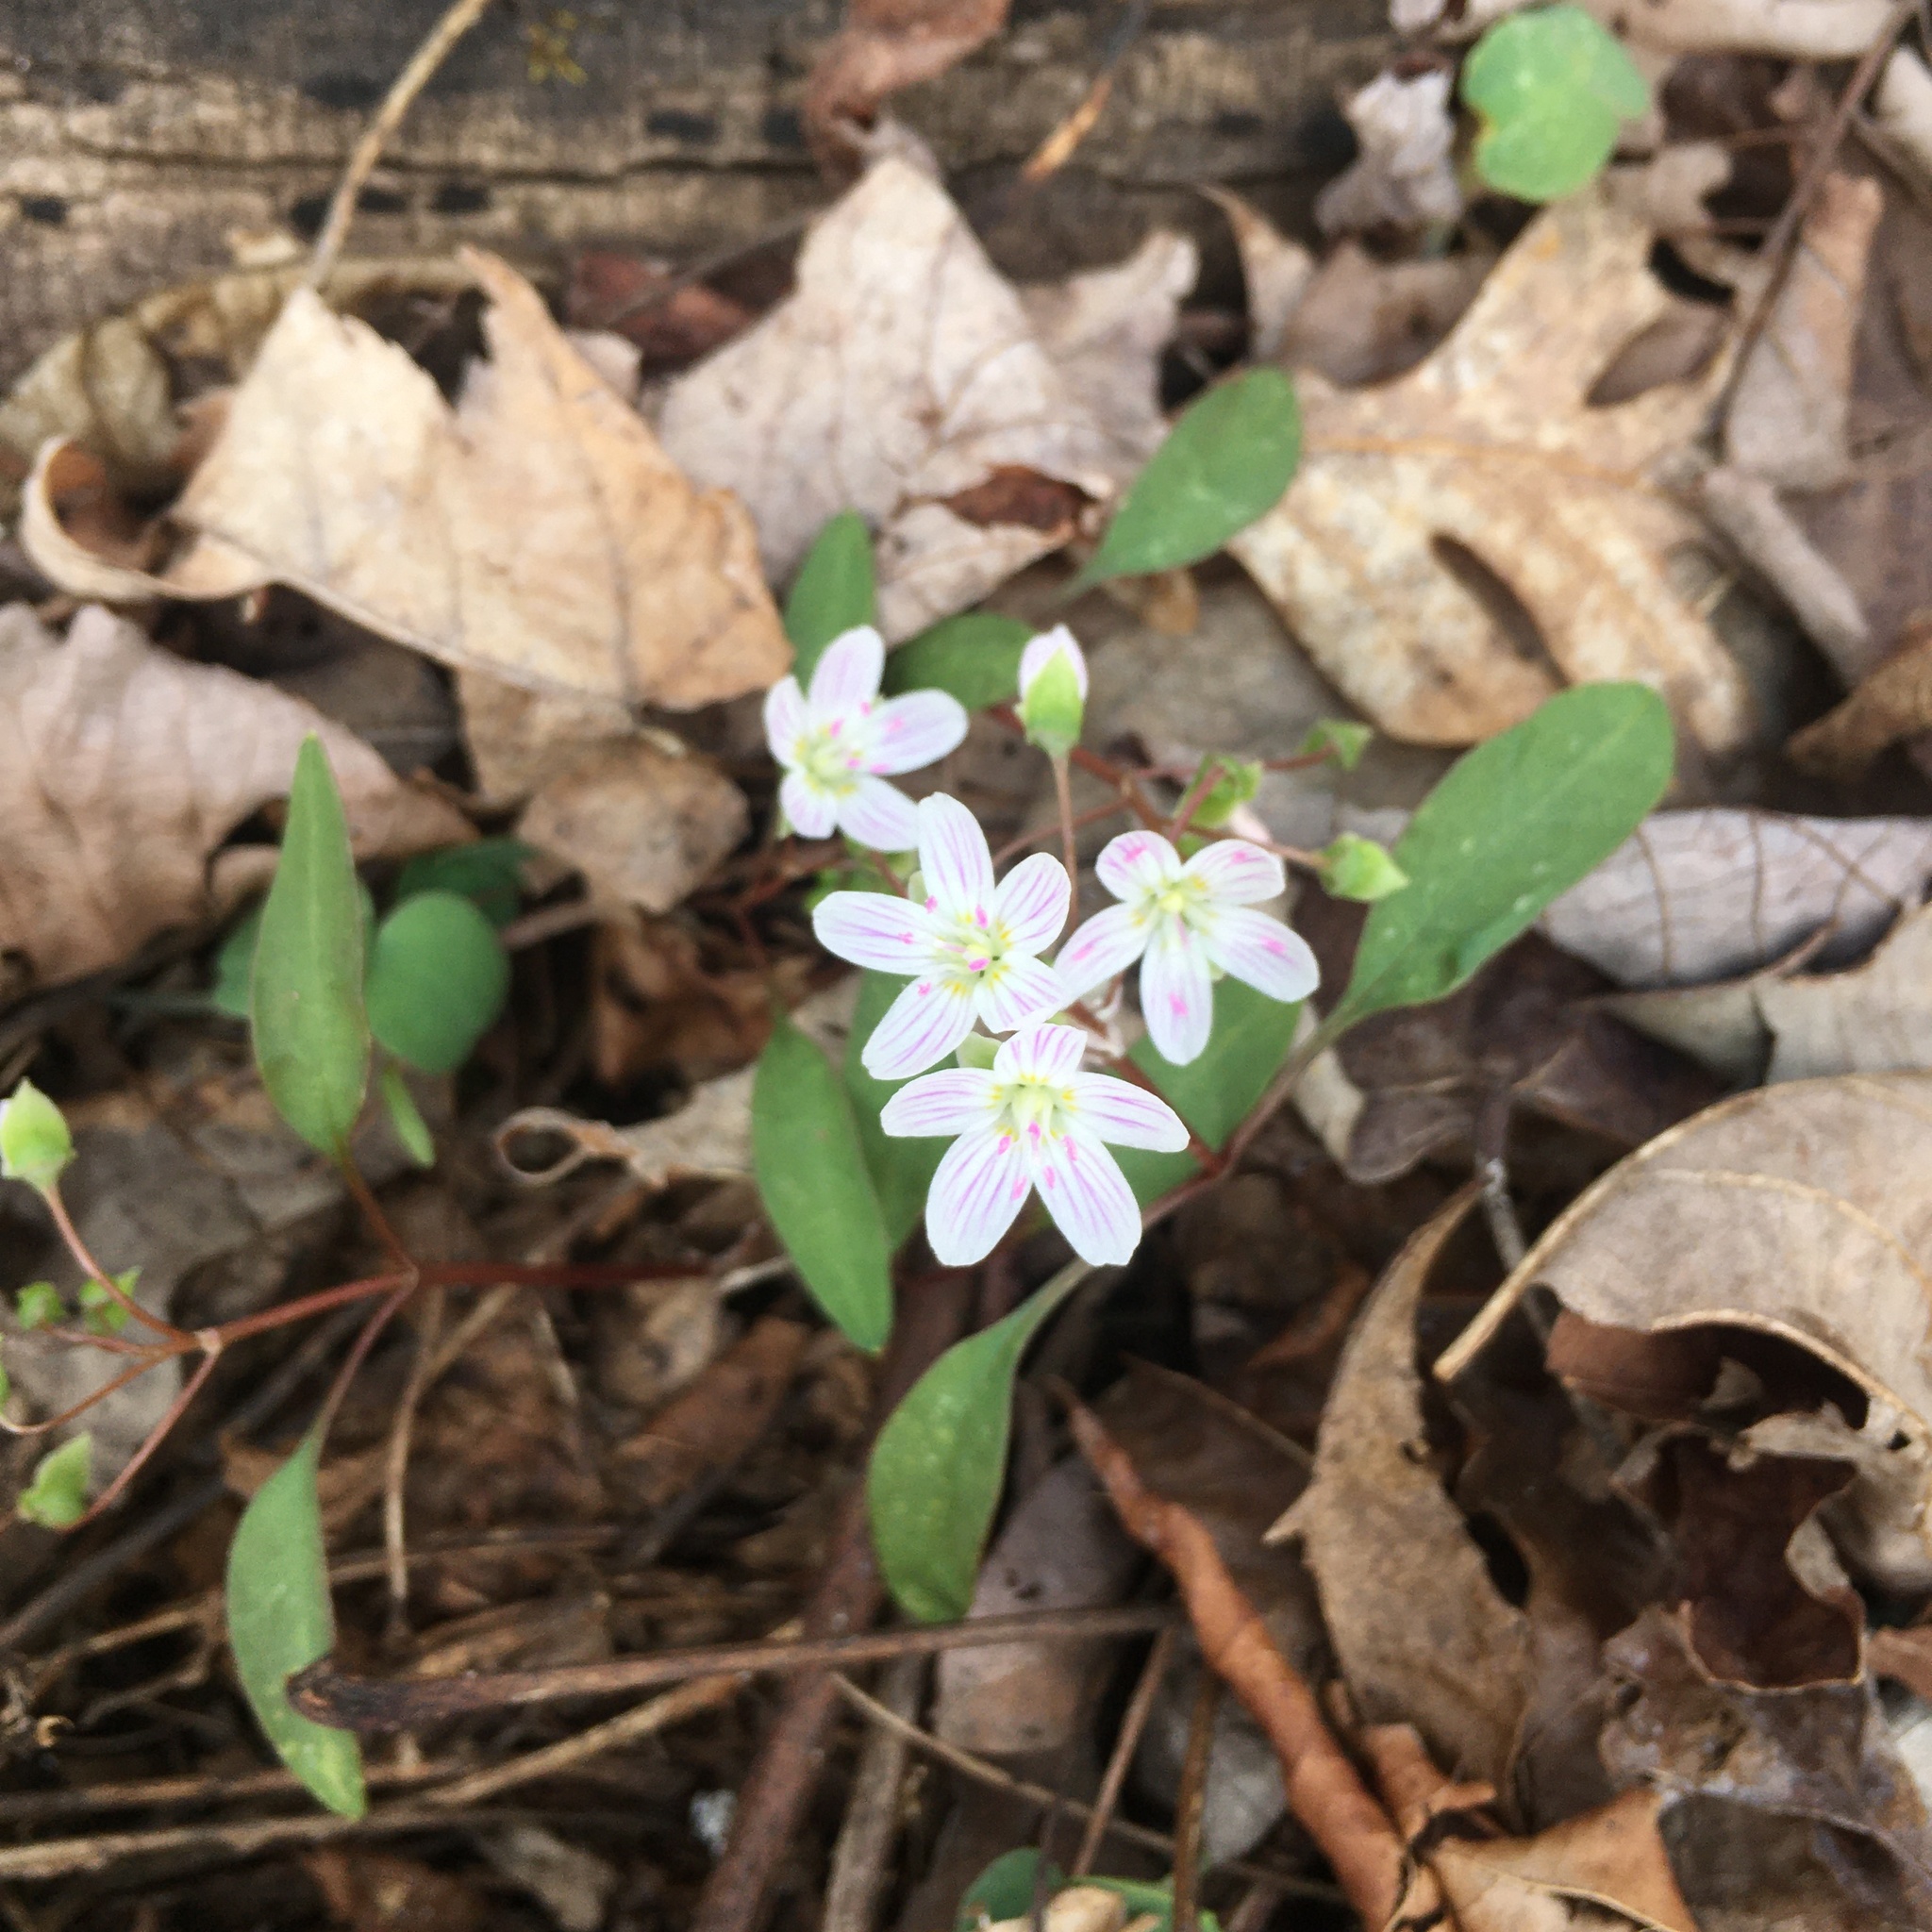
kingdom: Plantae
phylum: Tracheophyta
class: Magnoliopsida
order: Caryophyllales
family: Montiaceae
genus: Claytonia
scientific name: Claytonia caroliniana
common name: Carolina spring beauty
